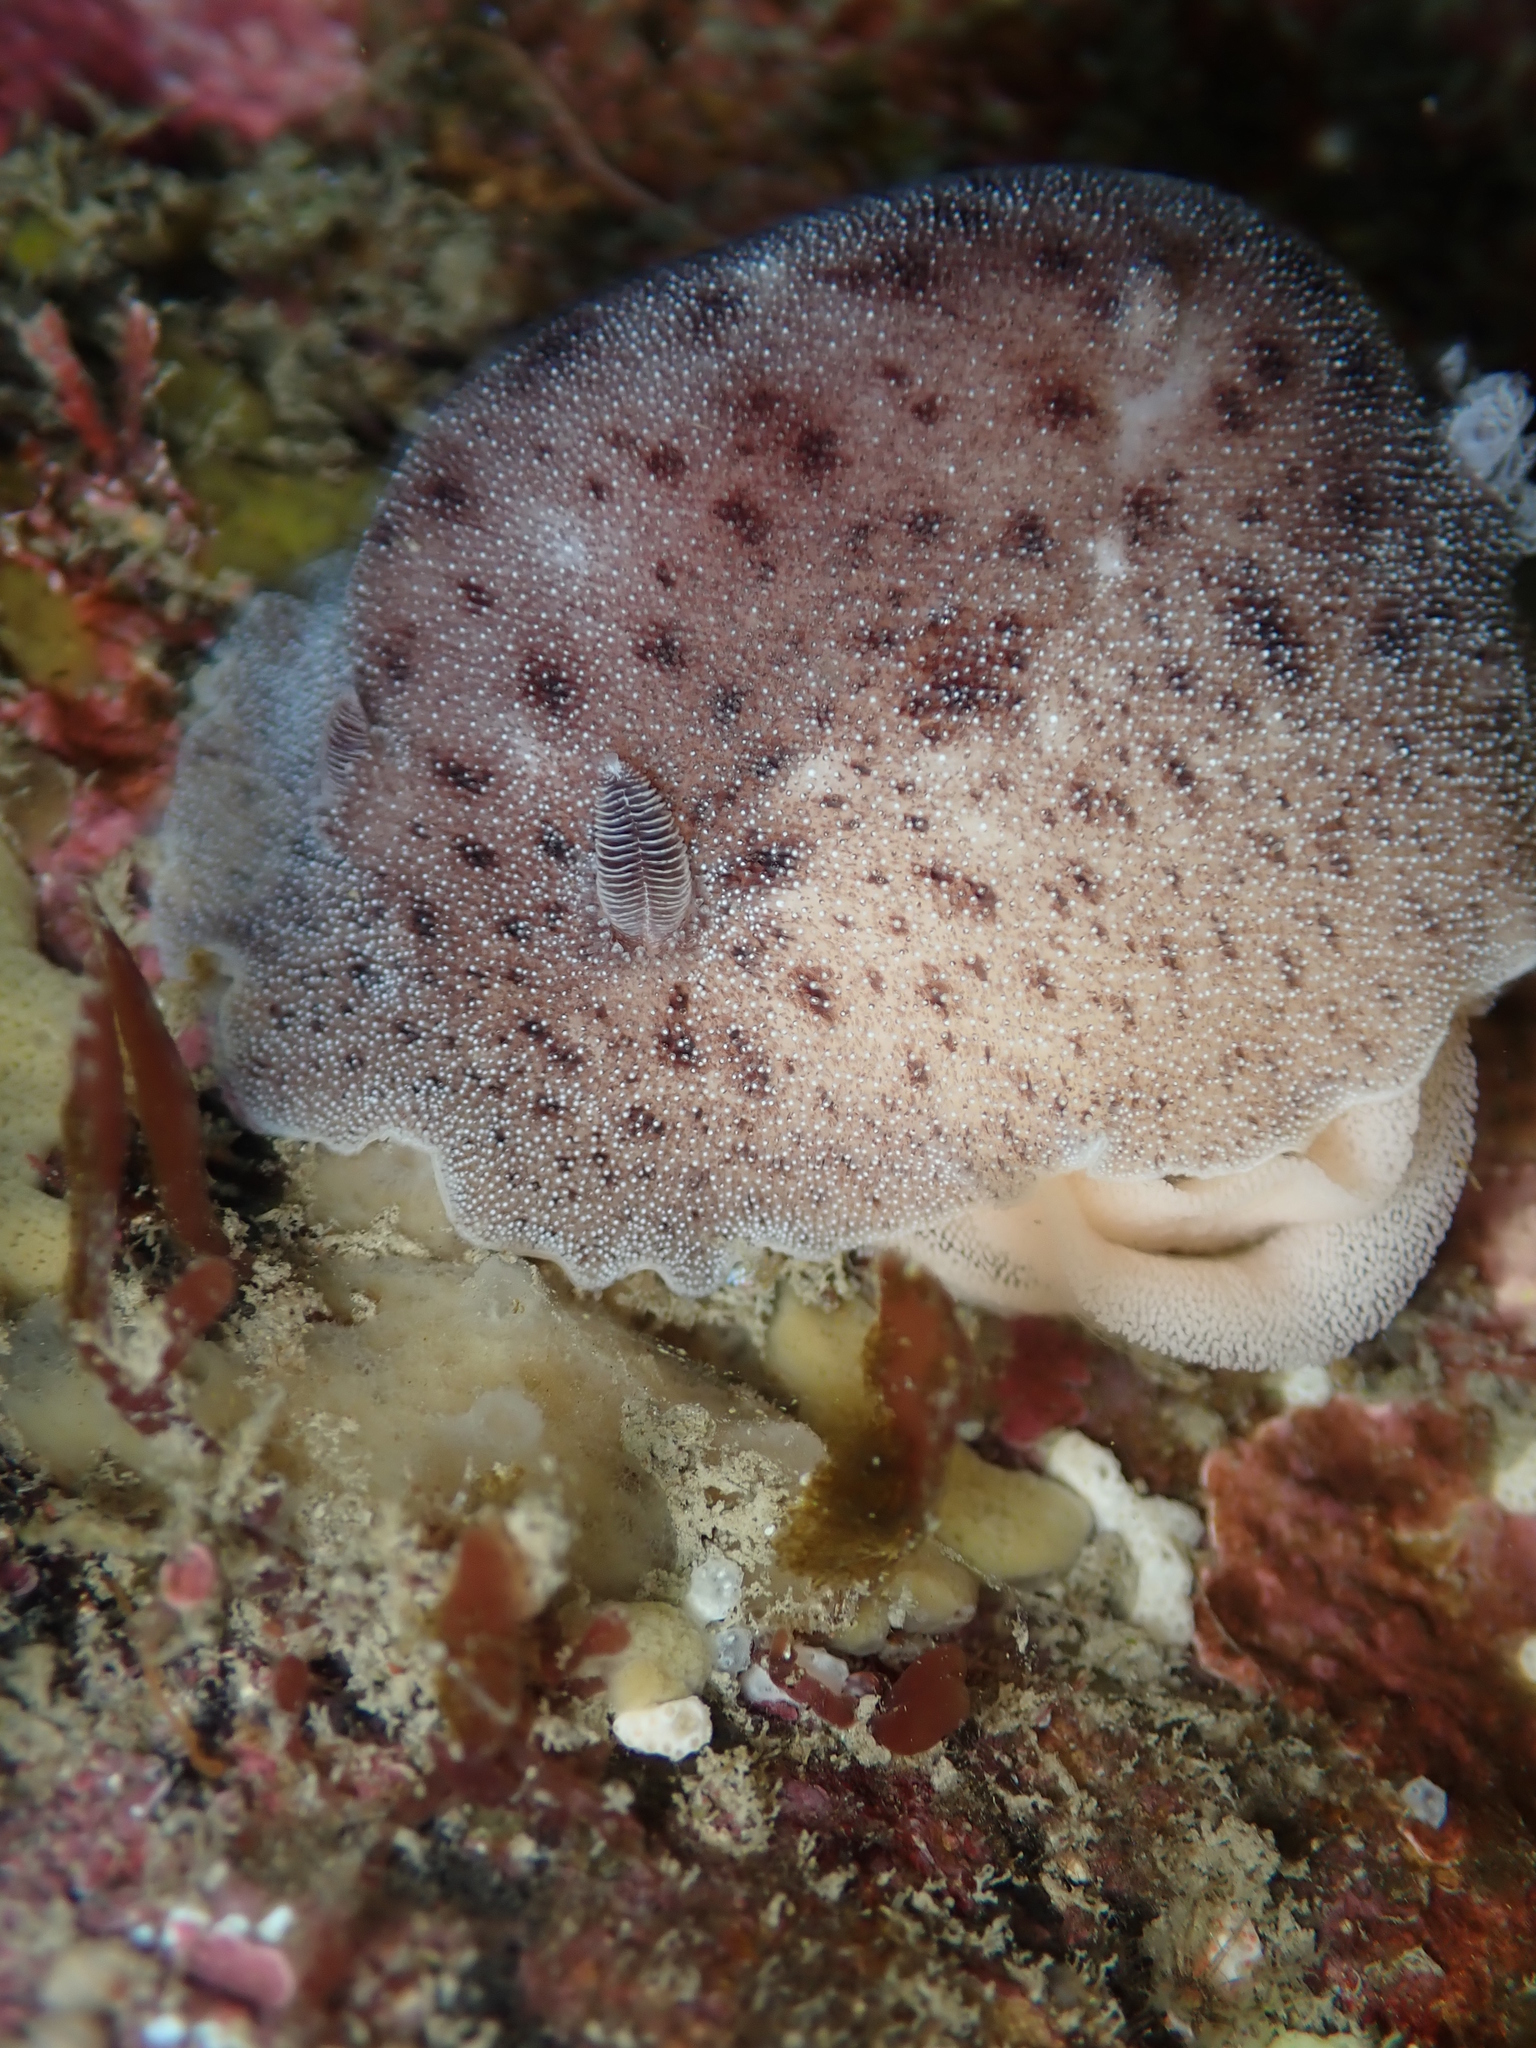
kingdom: Animalia
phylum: Mollusca
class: Gastropoda
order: Nudibranchia
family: Discodorididae
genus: Alloiodoris
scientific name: Alloiodoris lanuginata
